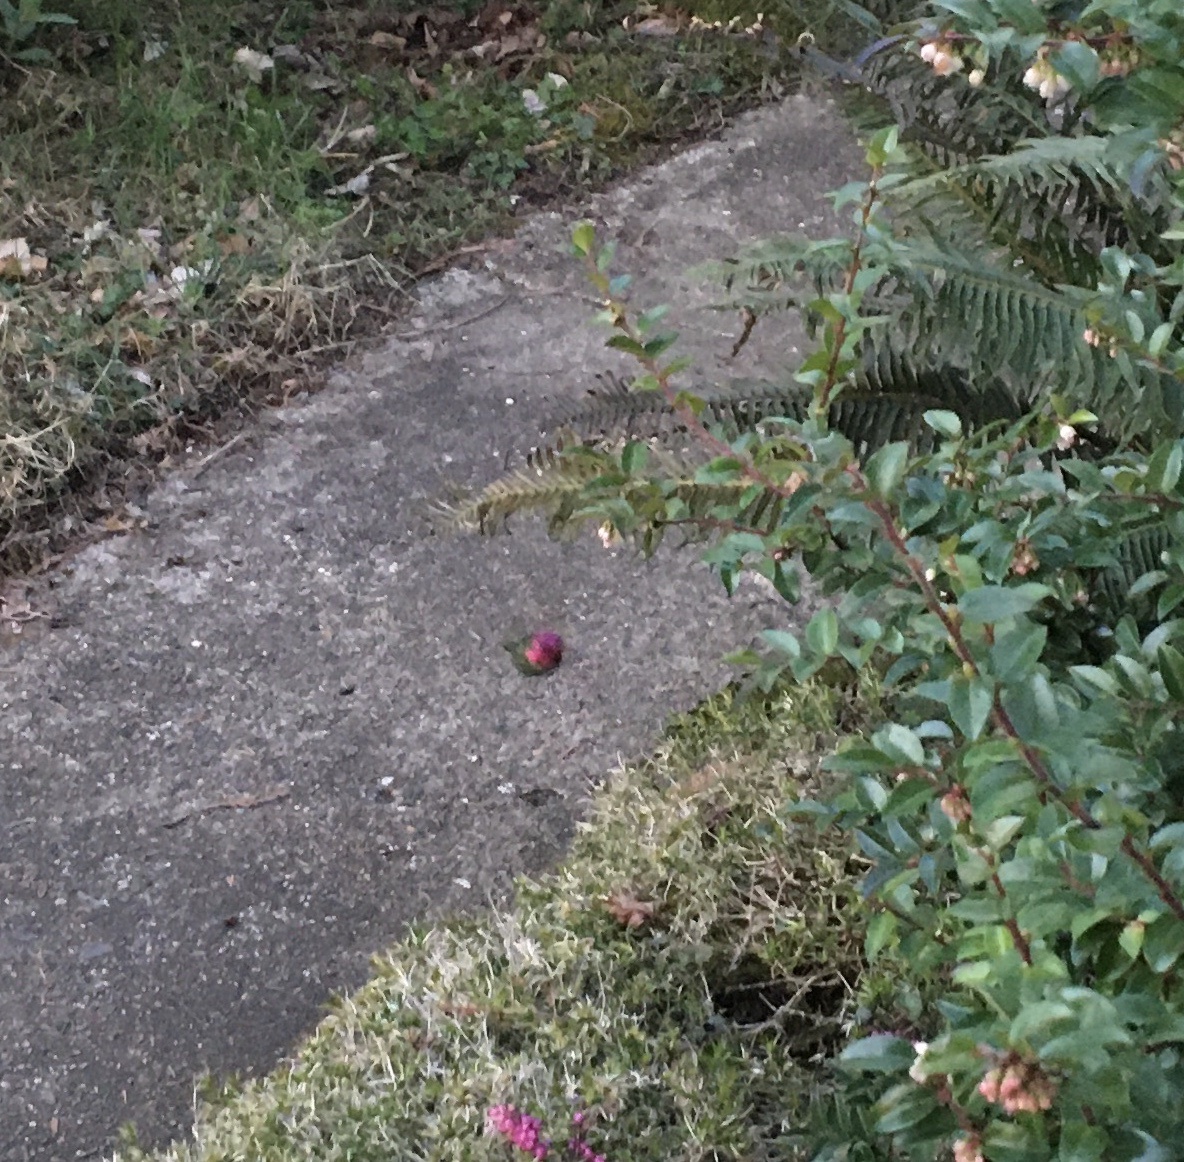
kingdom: Animalia
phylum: Chordata
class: Aves
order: Apodiformes
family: Trochilidae
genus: Calypte
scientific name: Calypte anna
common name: Anna's hummingbird
